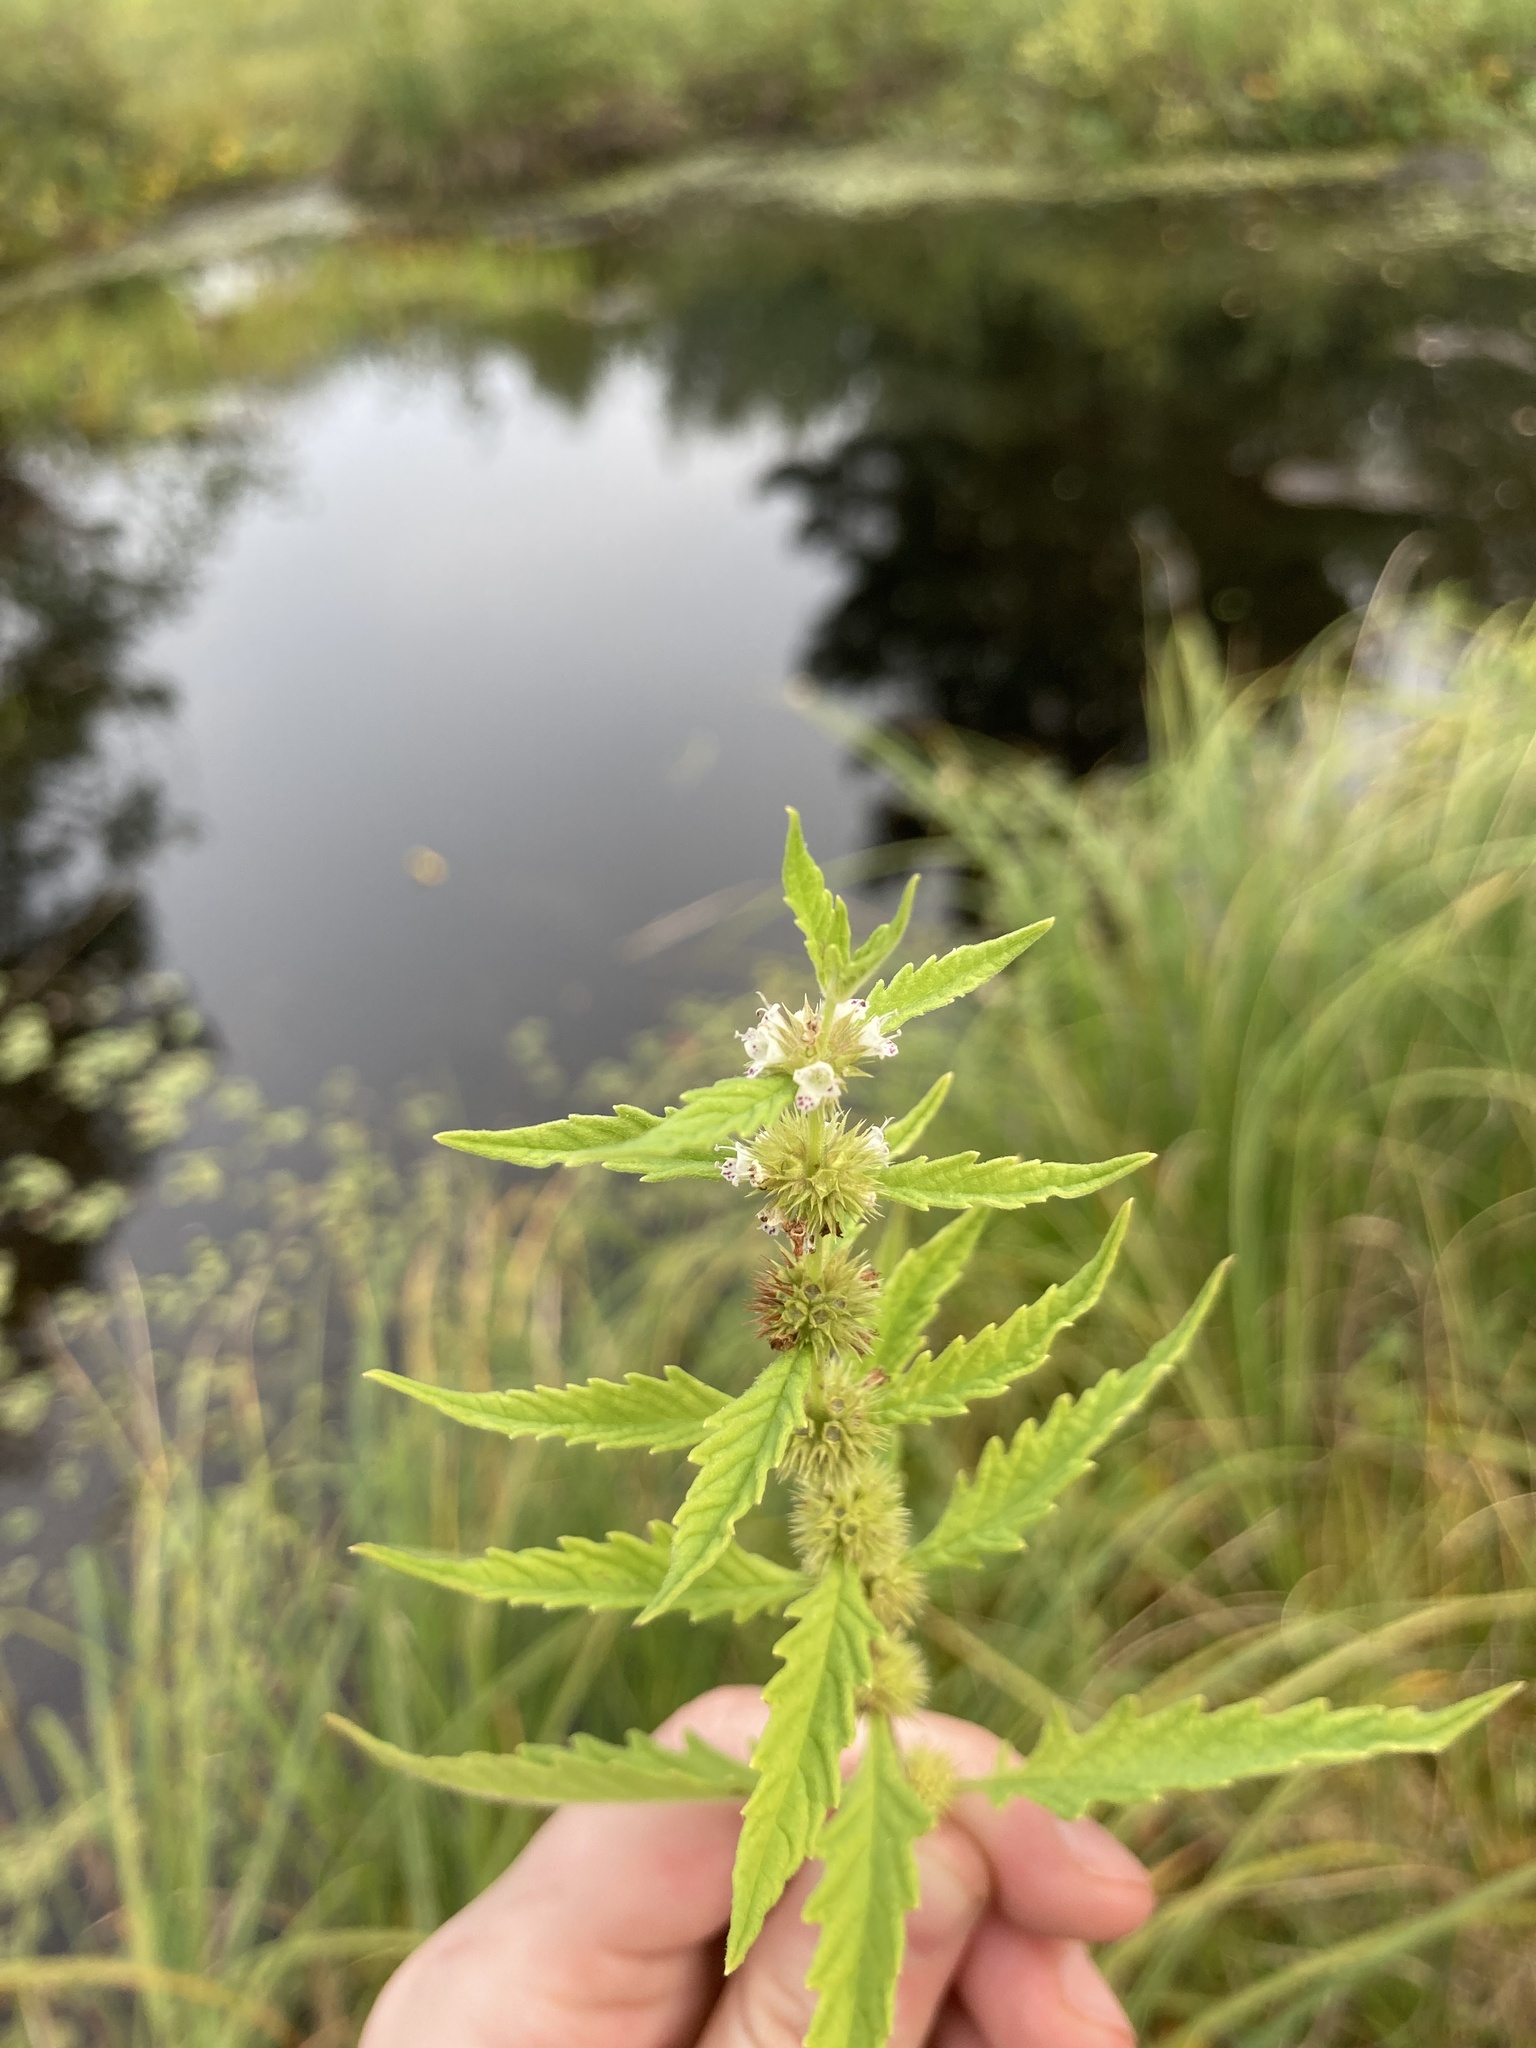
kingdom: Plantae
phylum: Tracheophyta
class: Magnoliopsida
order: Lamiales
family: Lamiaceae
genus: Lycopus
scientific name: Lycopus europaeus
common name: European bugleweed
